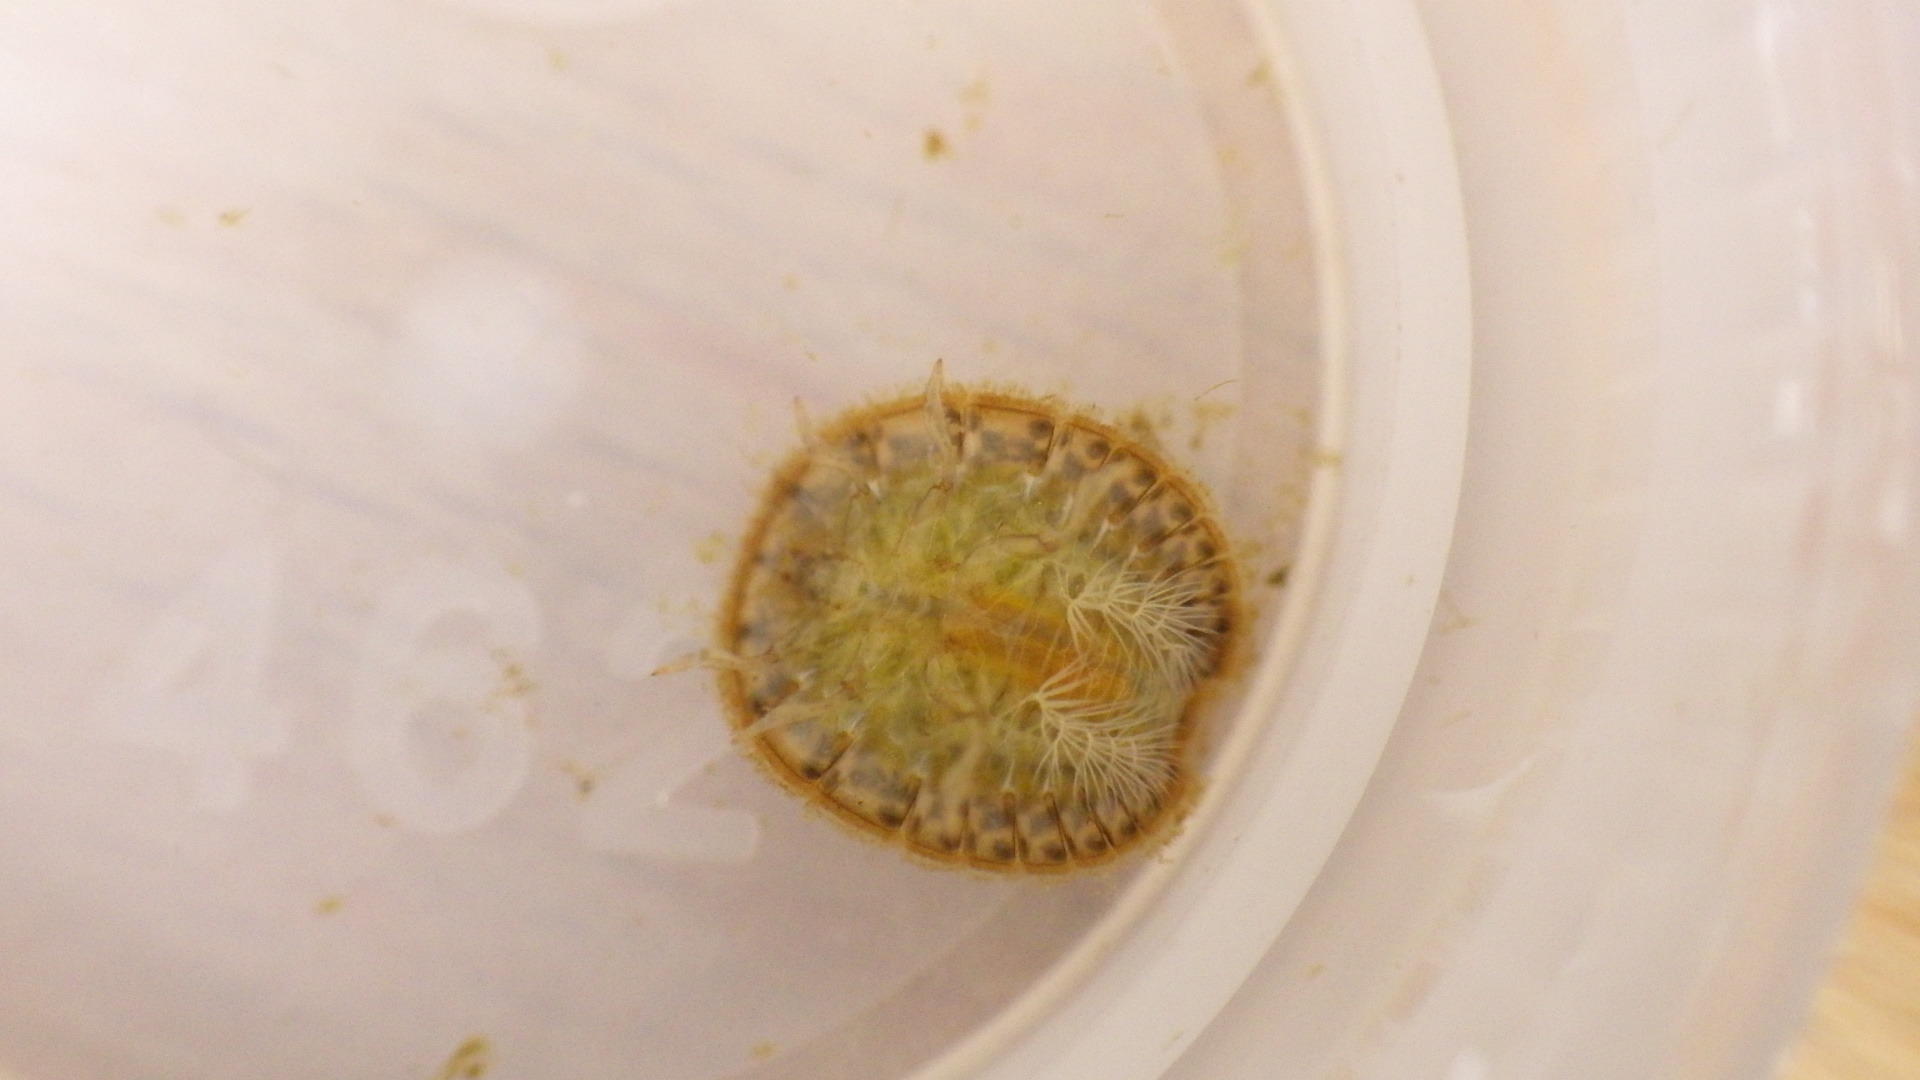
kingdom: Animalia
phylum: Arthropoda
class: Insecta
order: Coleoptera
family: Psephenidae
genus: Psephenus
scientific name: Psephenus herricki
